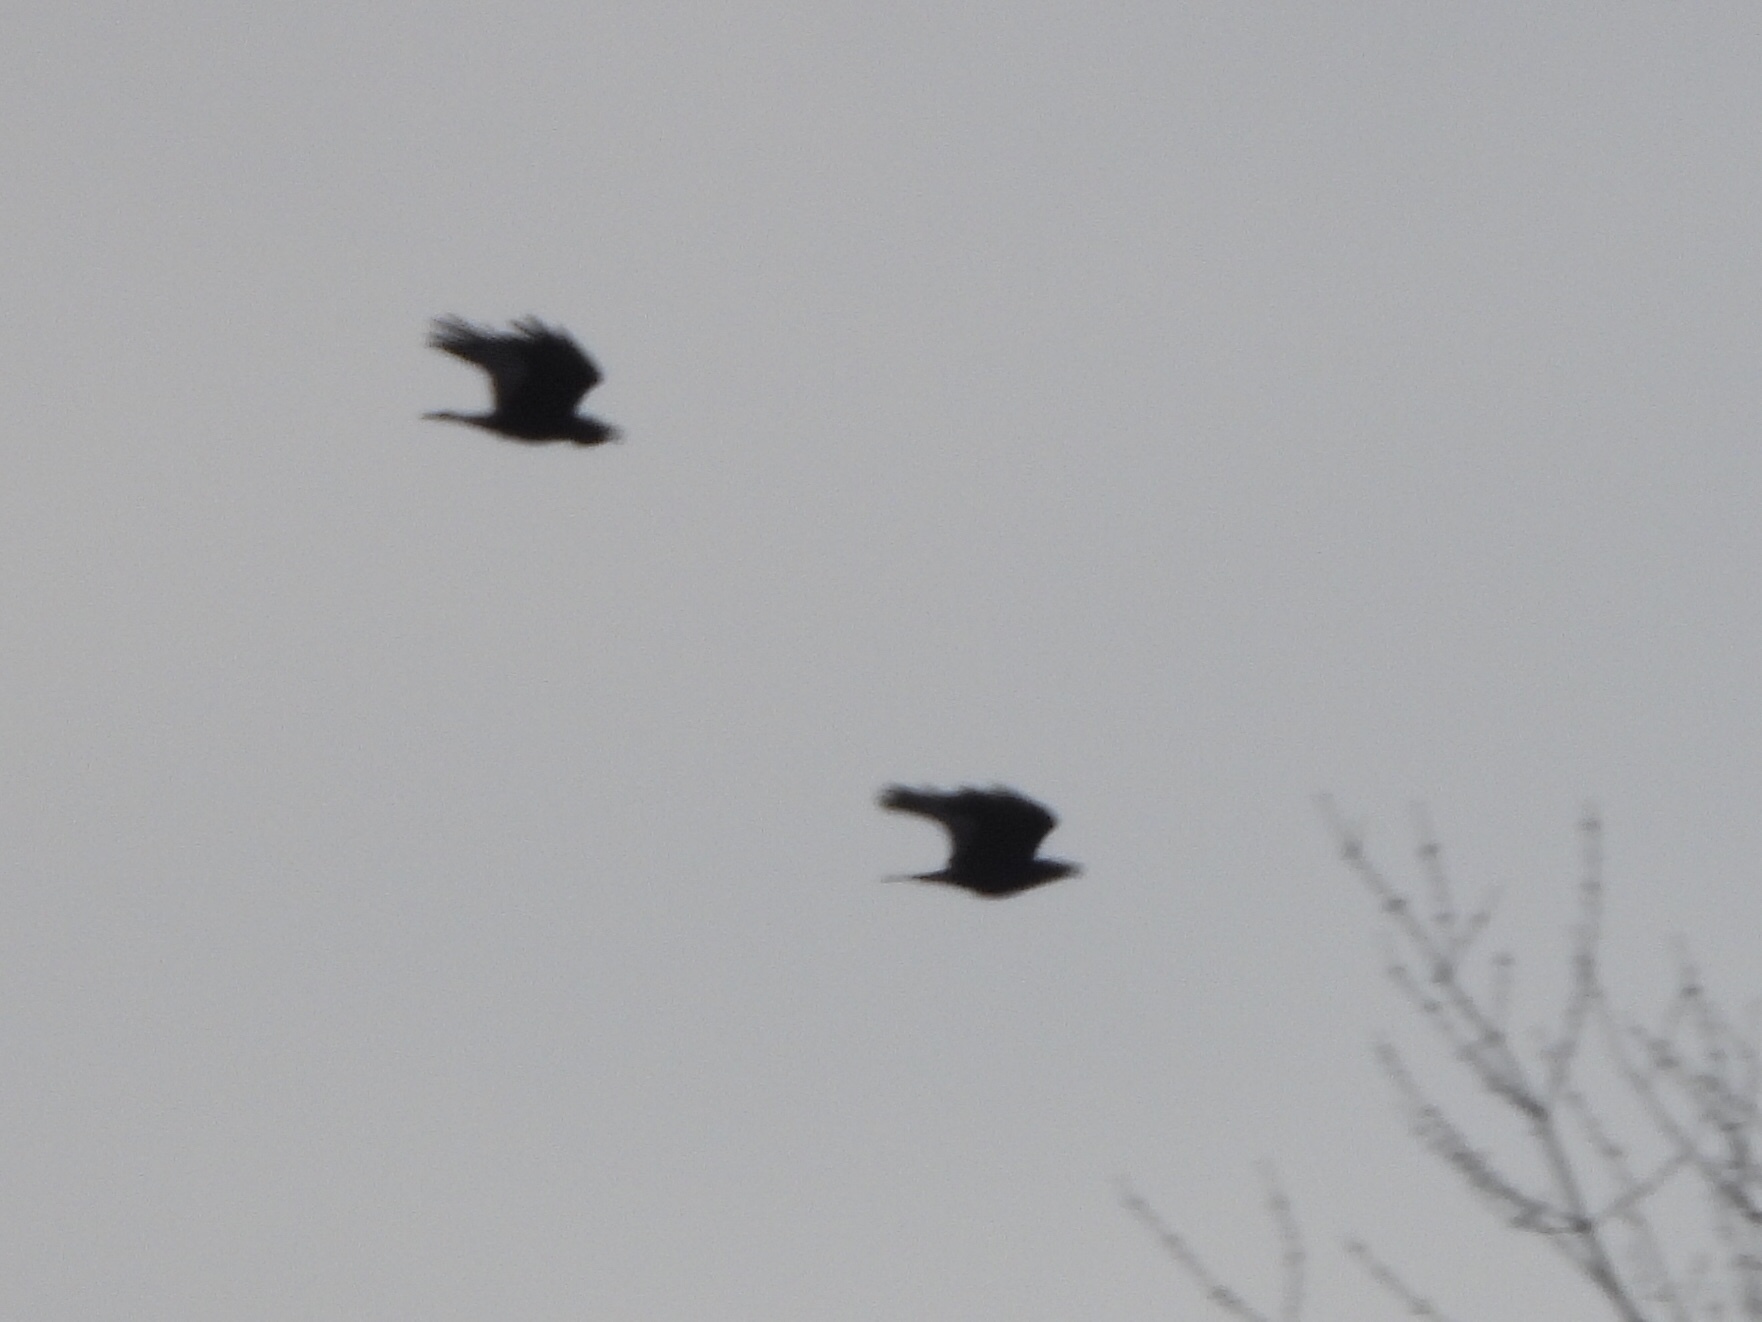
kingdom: Animalia
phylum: Chordata
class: Aves
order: Passeriformes
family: Corvidae
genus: Corvus
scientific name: Corvus corax
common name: Common raven
